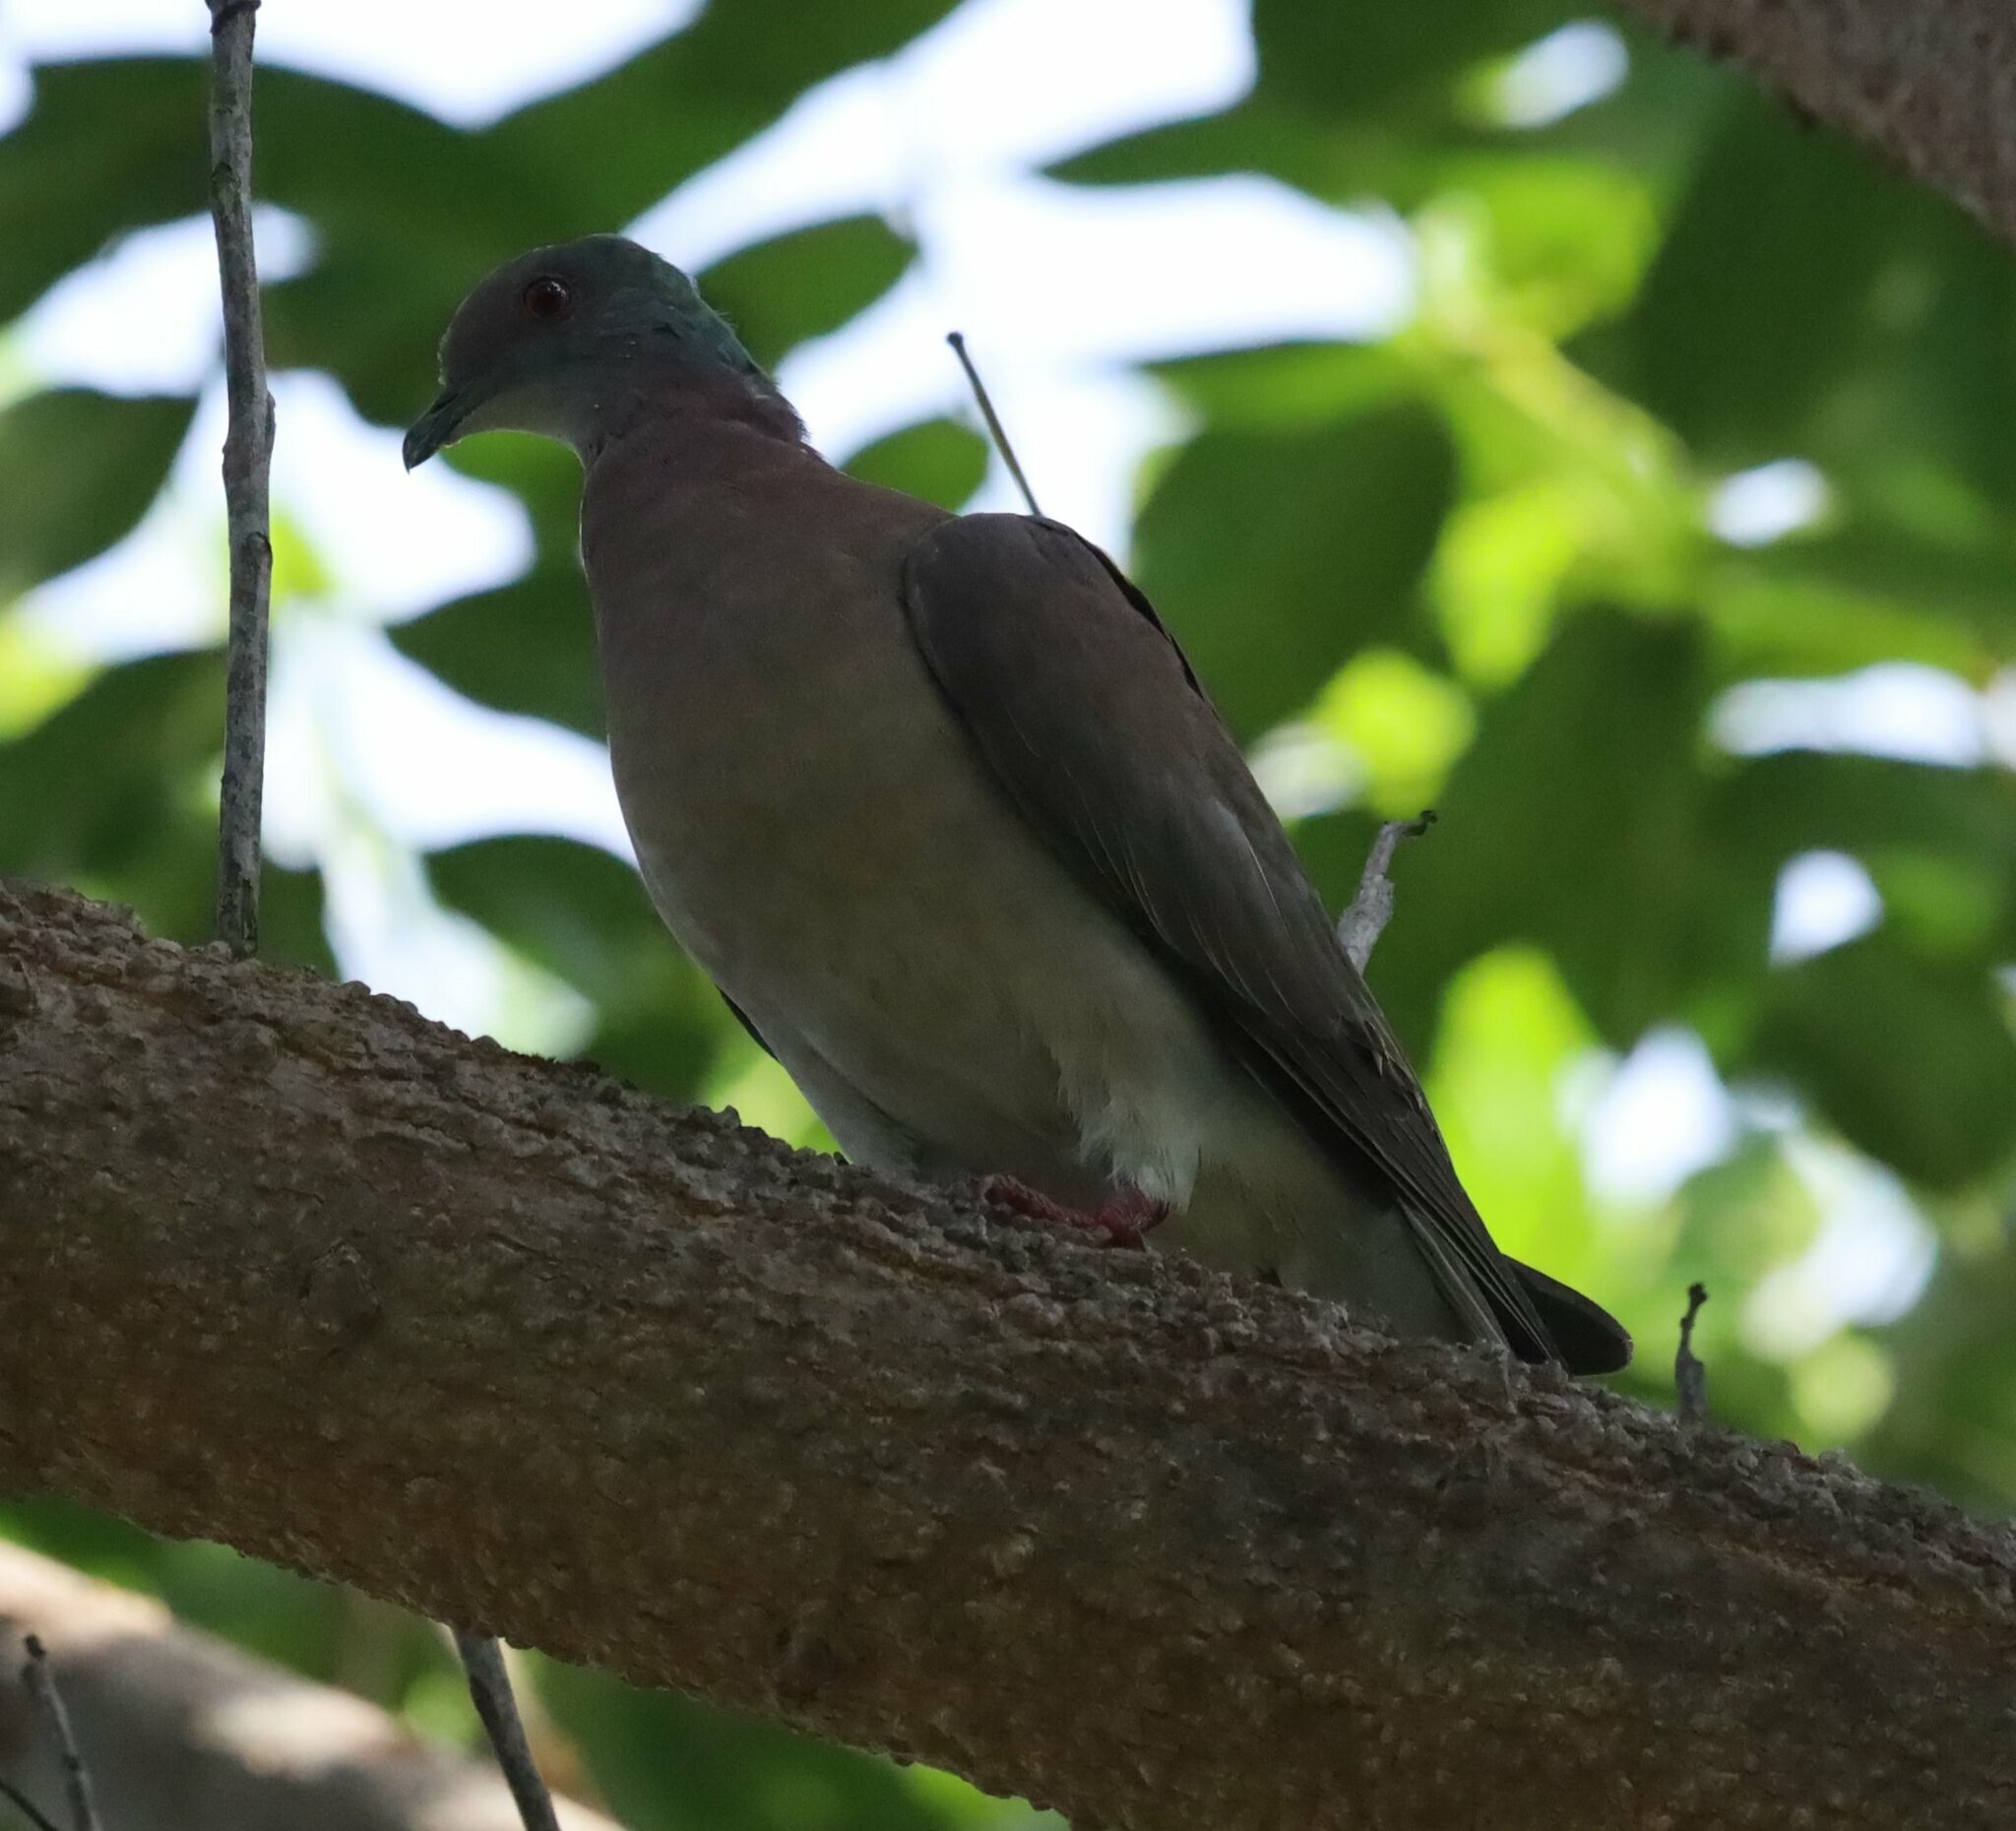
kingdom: Animalia
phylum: Chordata
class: Aves
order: Columbiformes
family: Columbidae
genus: Patagioenas
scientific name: Patagioenas cayennensis
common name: Pale-vented pigeon
